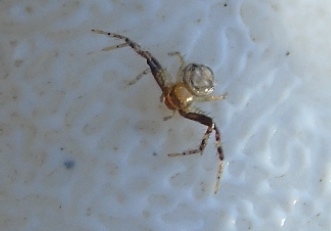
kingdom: Animalia
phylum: Arthropoda
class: Arachnida
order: Araneae
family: Thomisidae
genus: Synema
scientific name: Synema
